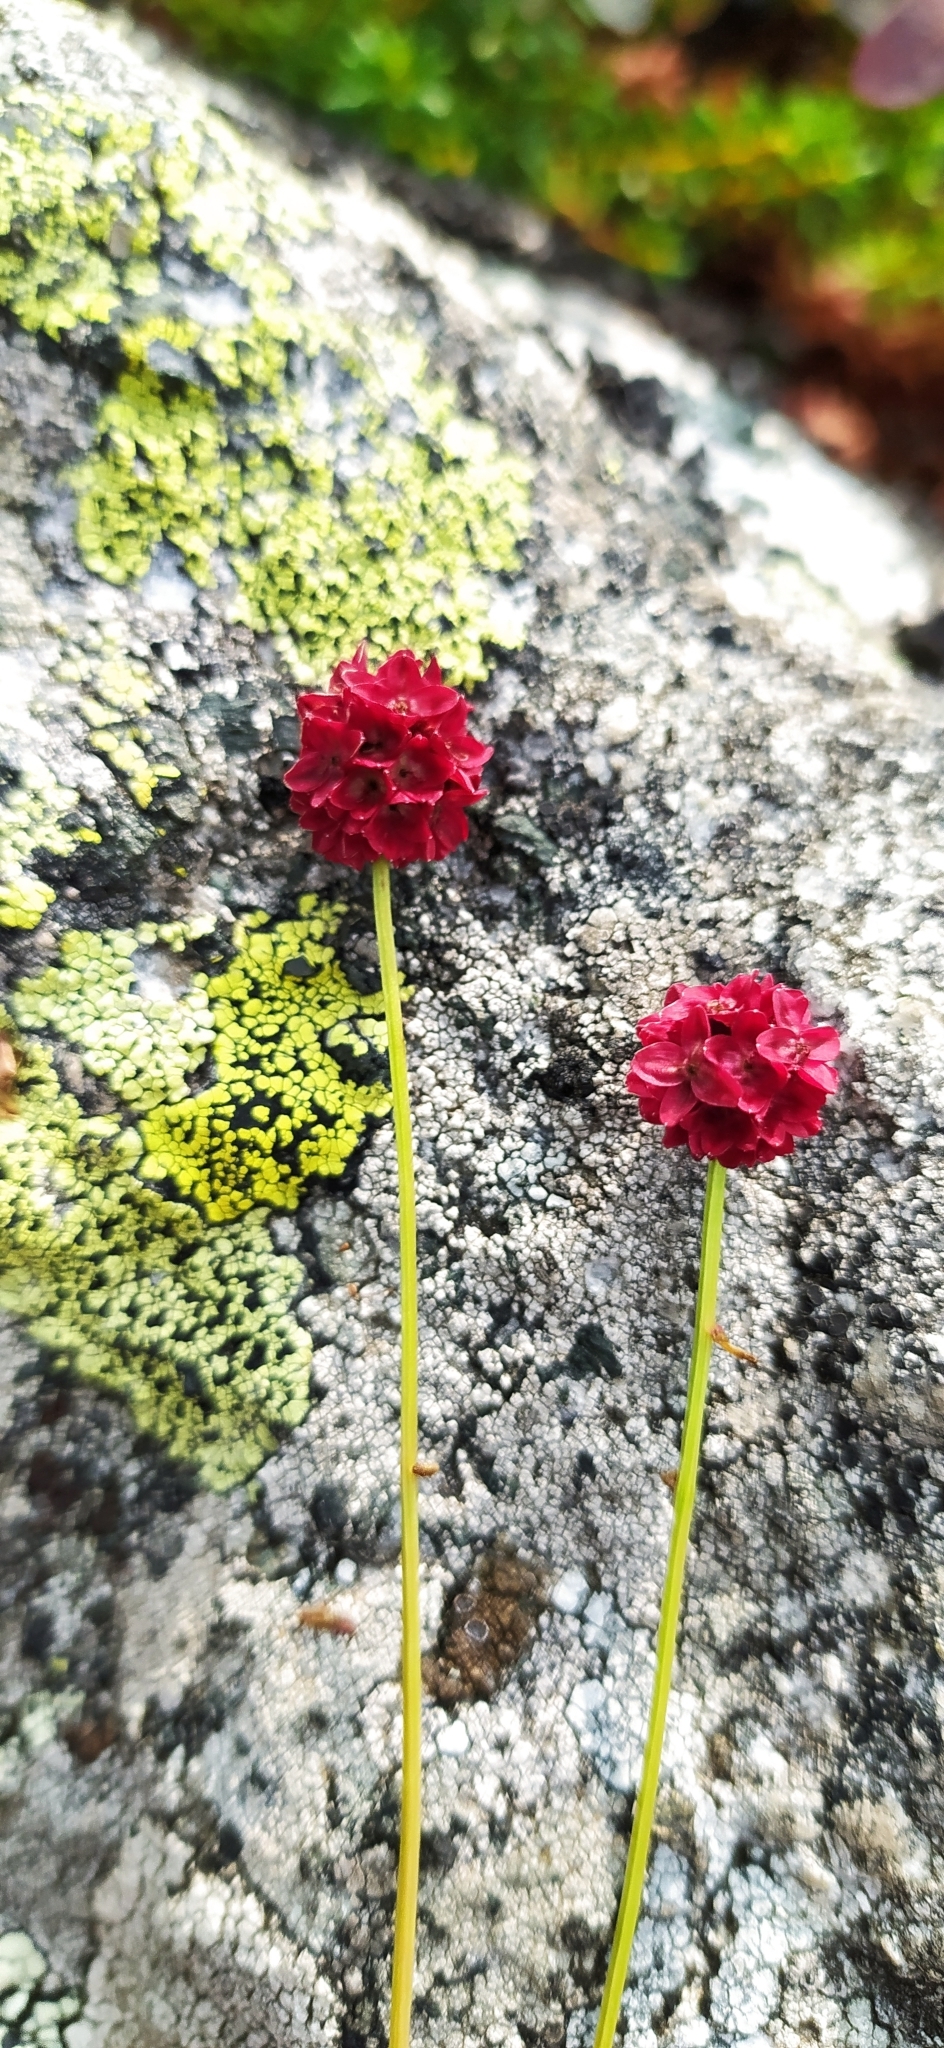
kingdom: Plantae
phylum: Tracheophyta
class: Magnoliopsida
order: Rosales
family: Rosaceae
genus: Sanguisorba
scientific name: Sanguisorba officinalis
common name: Great burnet
